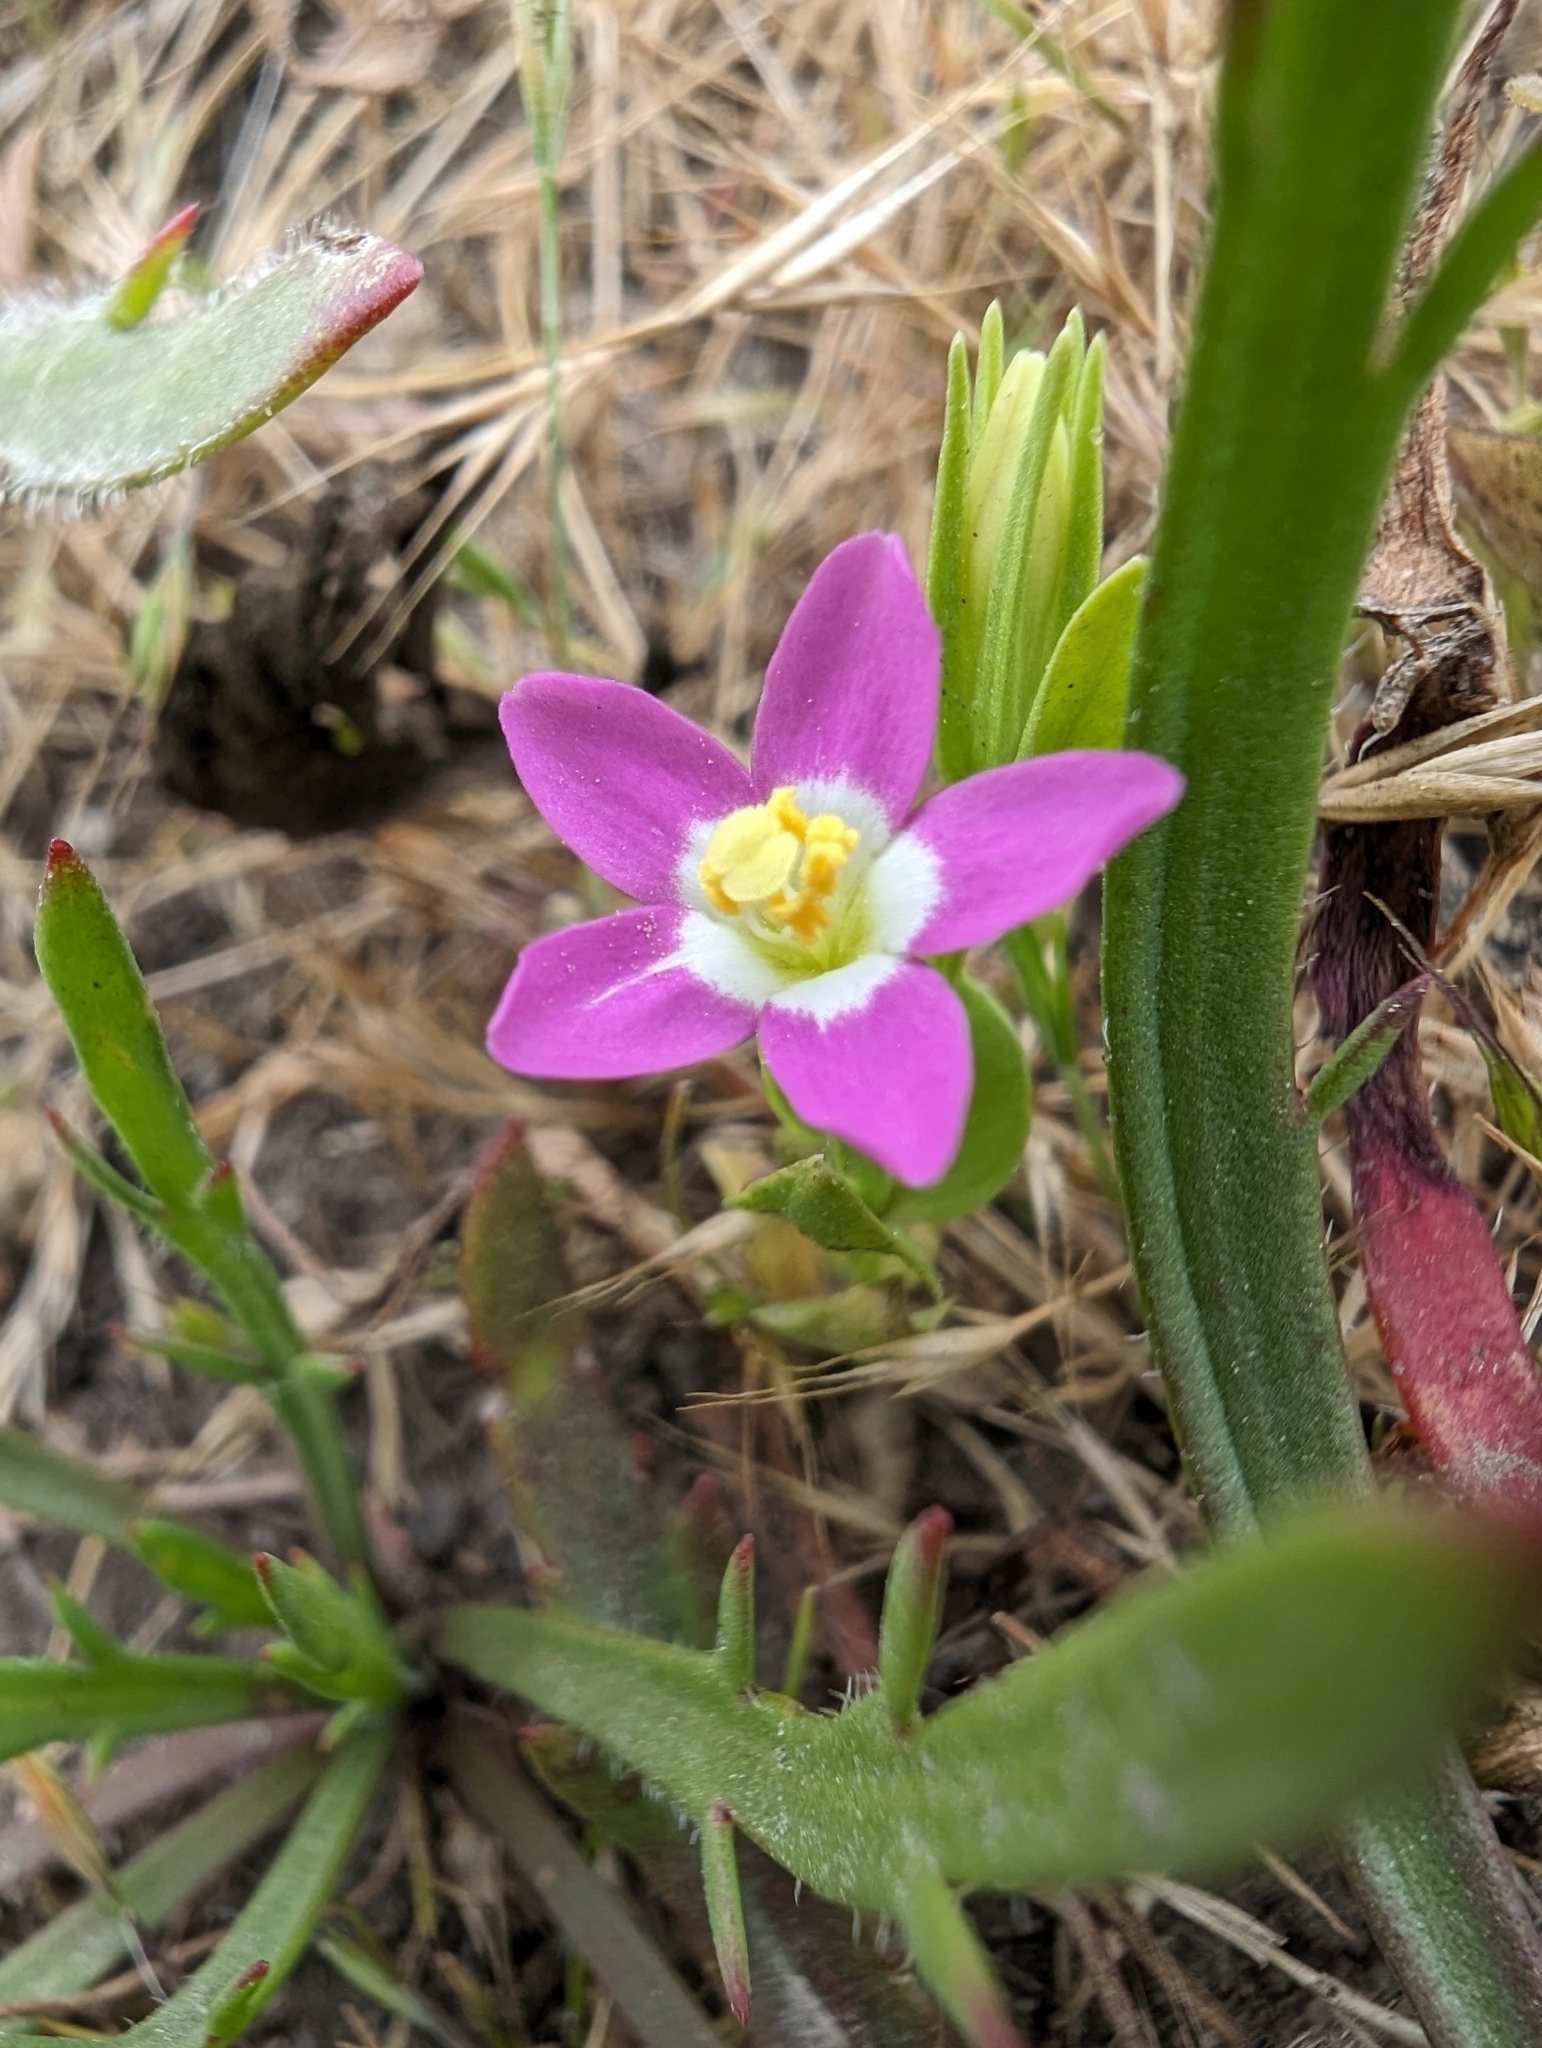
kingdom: Plantae
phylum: Tracheophyta
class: Magnoliopsida
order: Gentianales
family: Gentianaceae
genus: Zeltnera
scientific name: Zeltnera davyi
